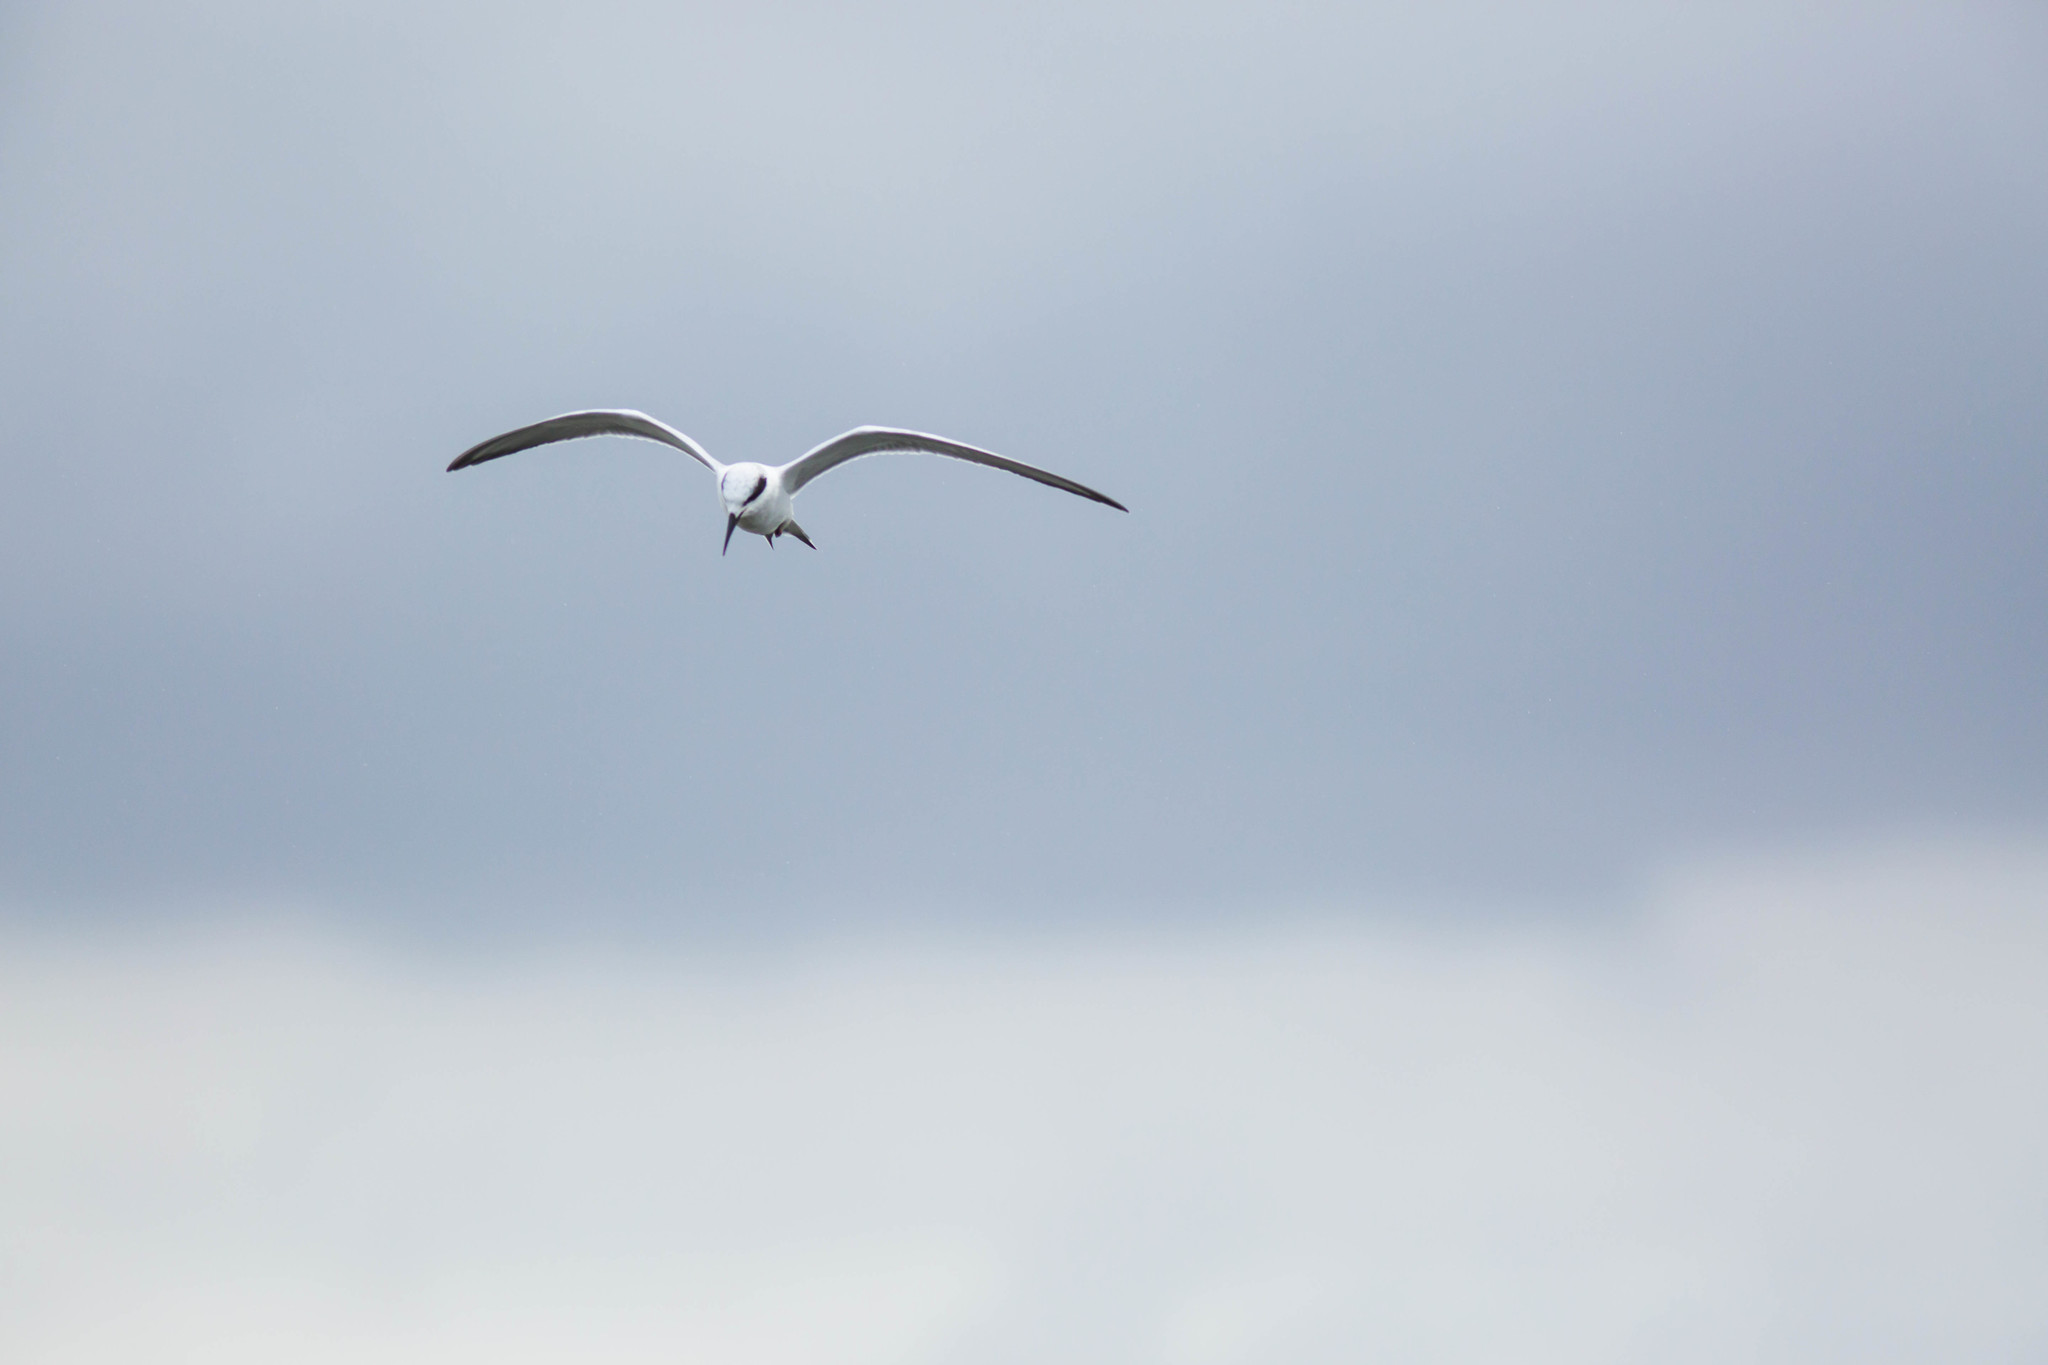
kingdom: Animalia
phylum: Chordata
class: Aves
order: Charadriiformes
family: Laridae
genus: Sterna
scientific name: Sterna forsteri
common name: Forster's tern
